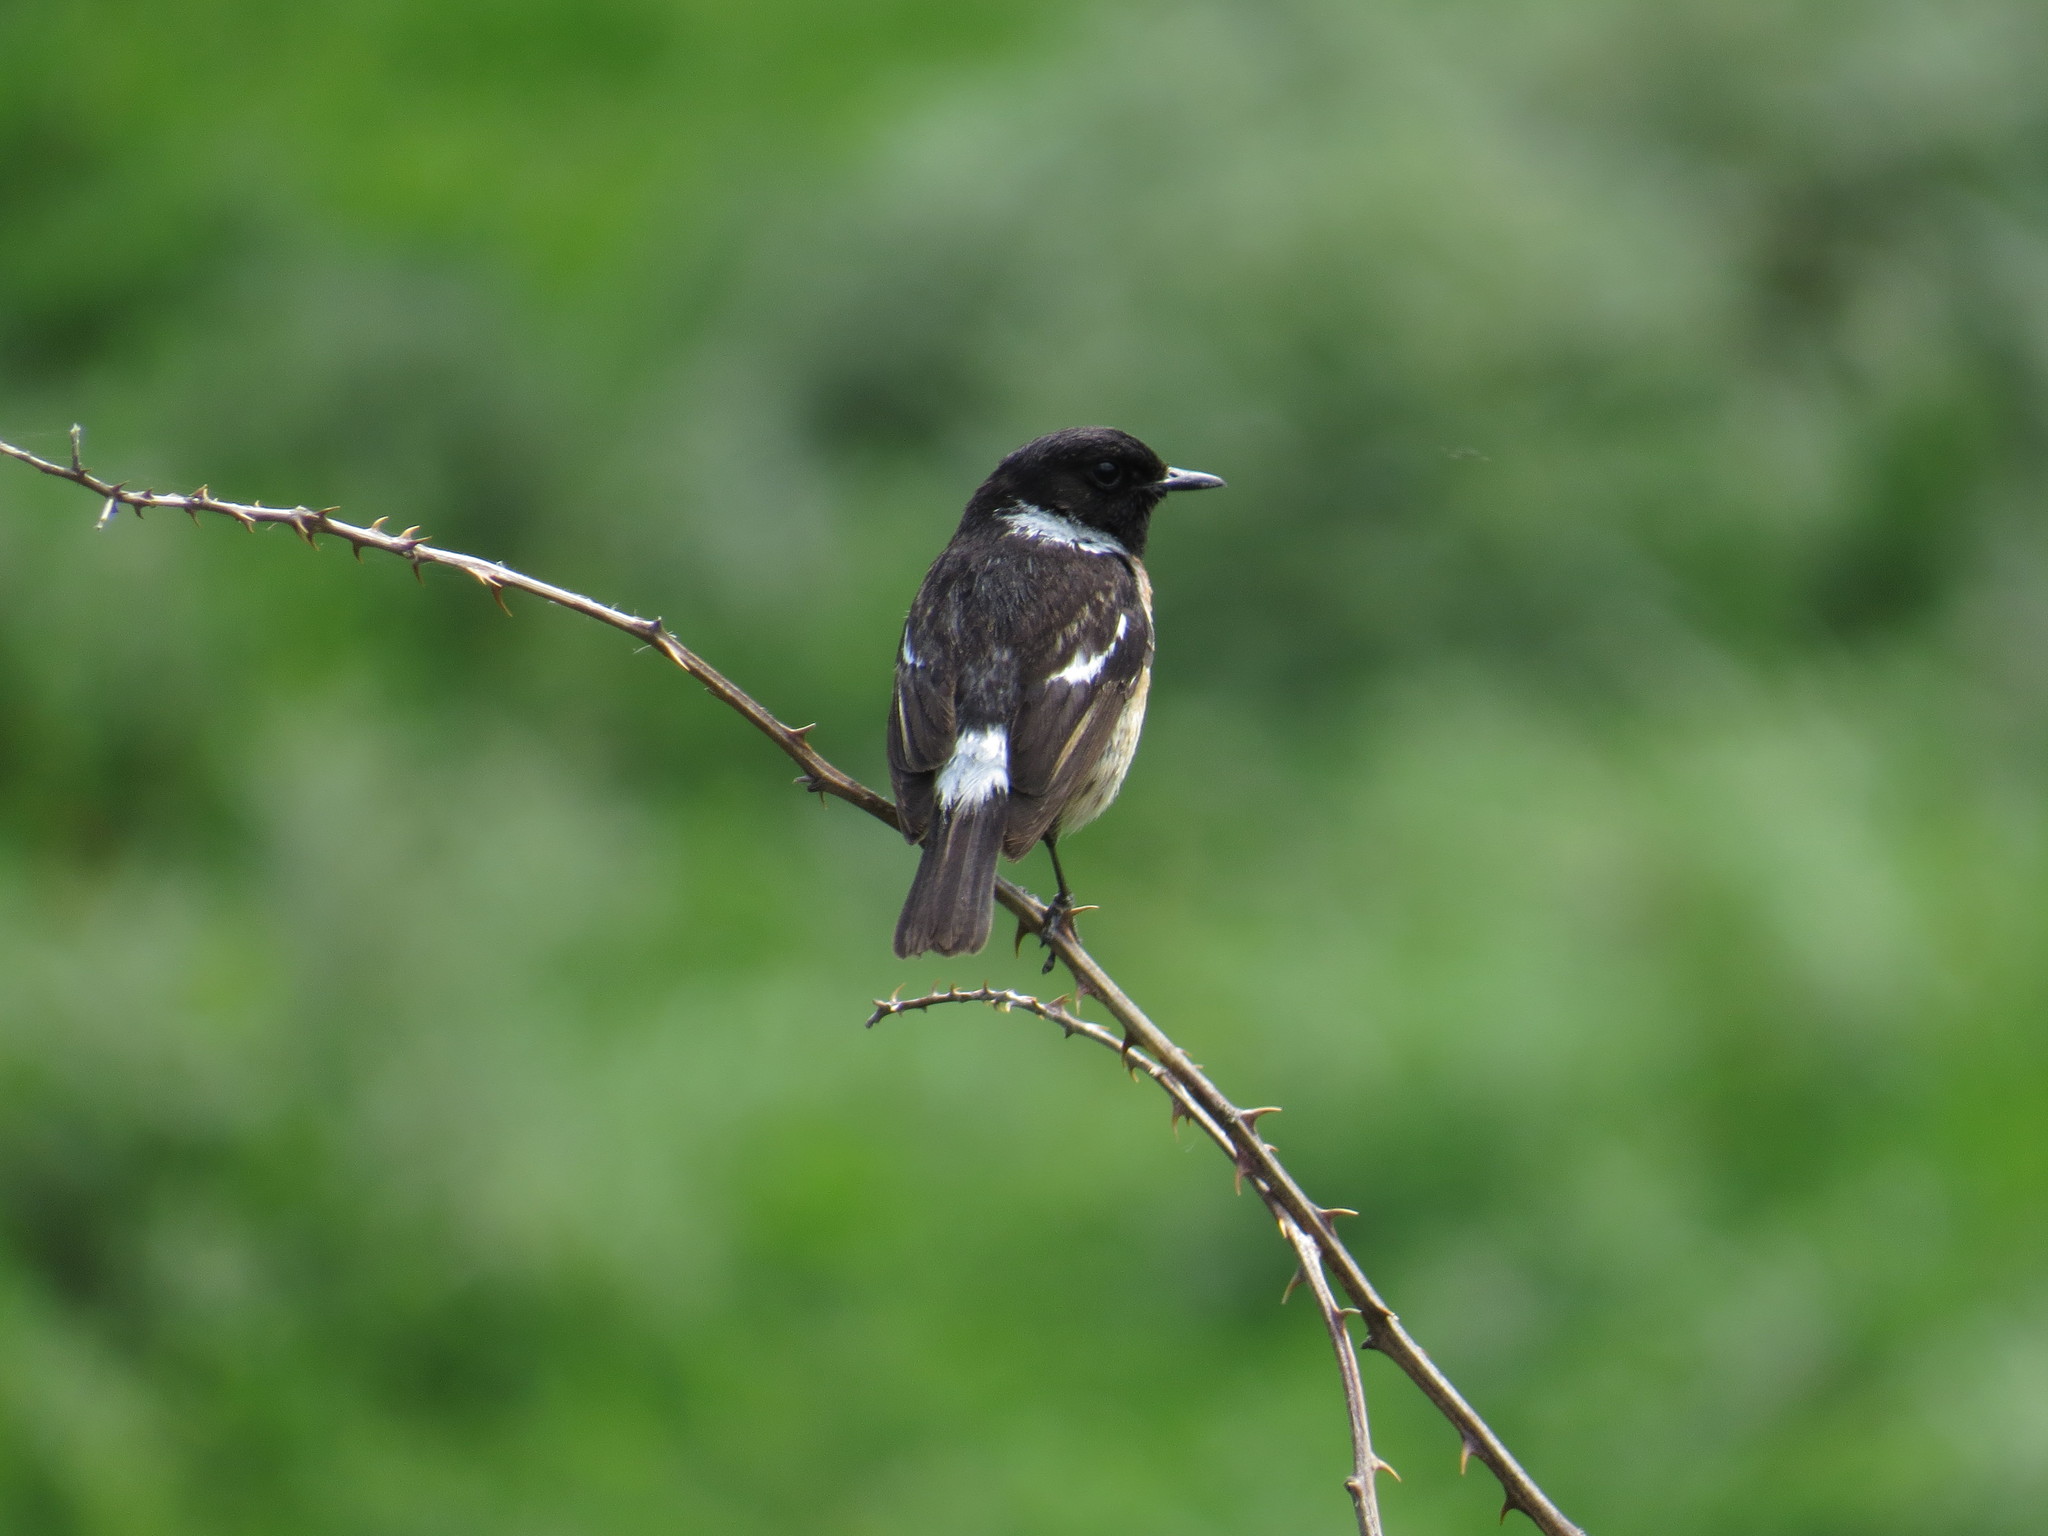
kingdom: Animalia
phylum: Chordata
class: Aves
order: Passeriformes
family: Muscicapidae
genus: Saxicola
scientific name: Saxicola rubicola
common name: European stonechat
